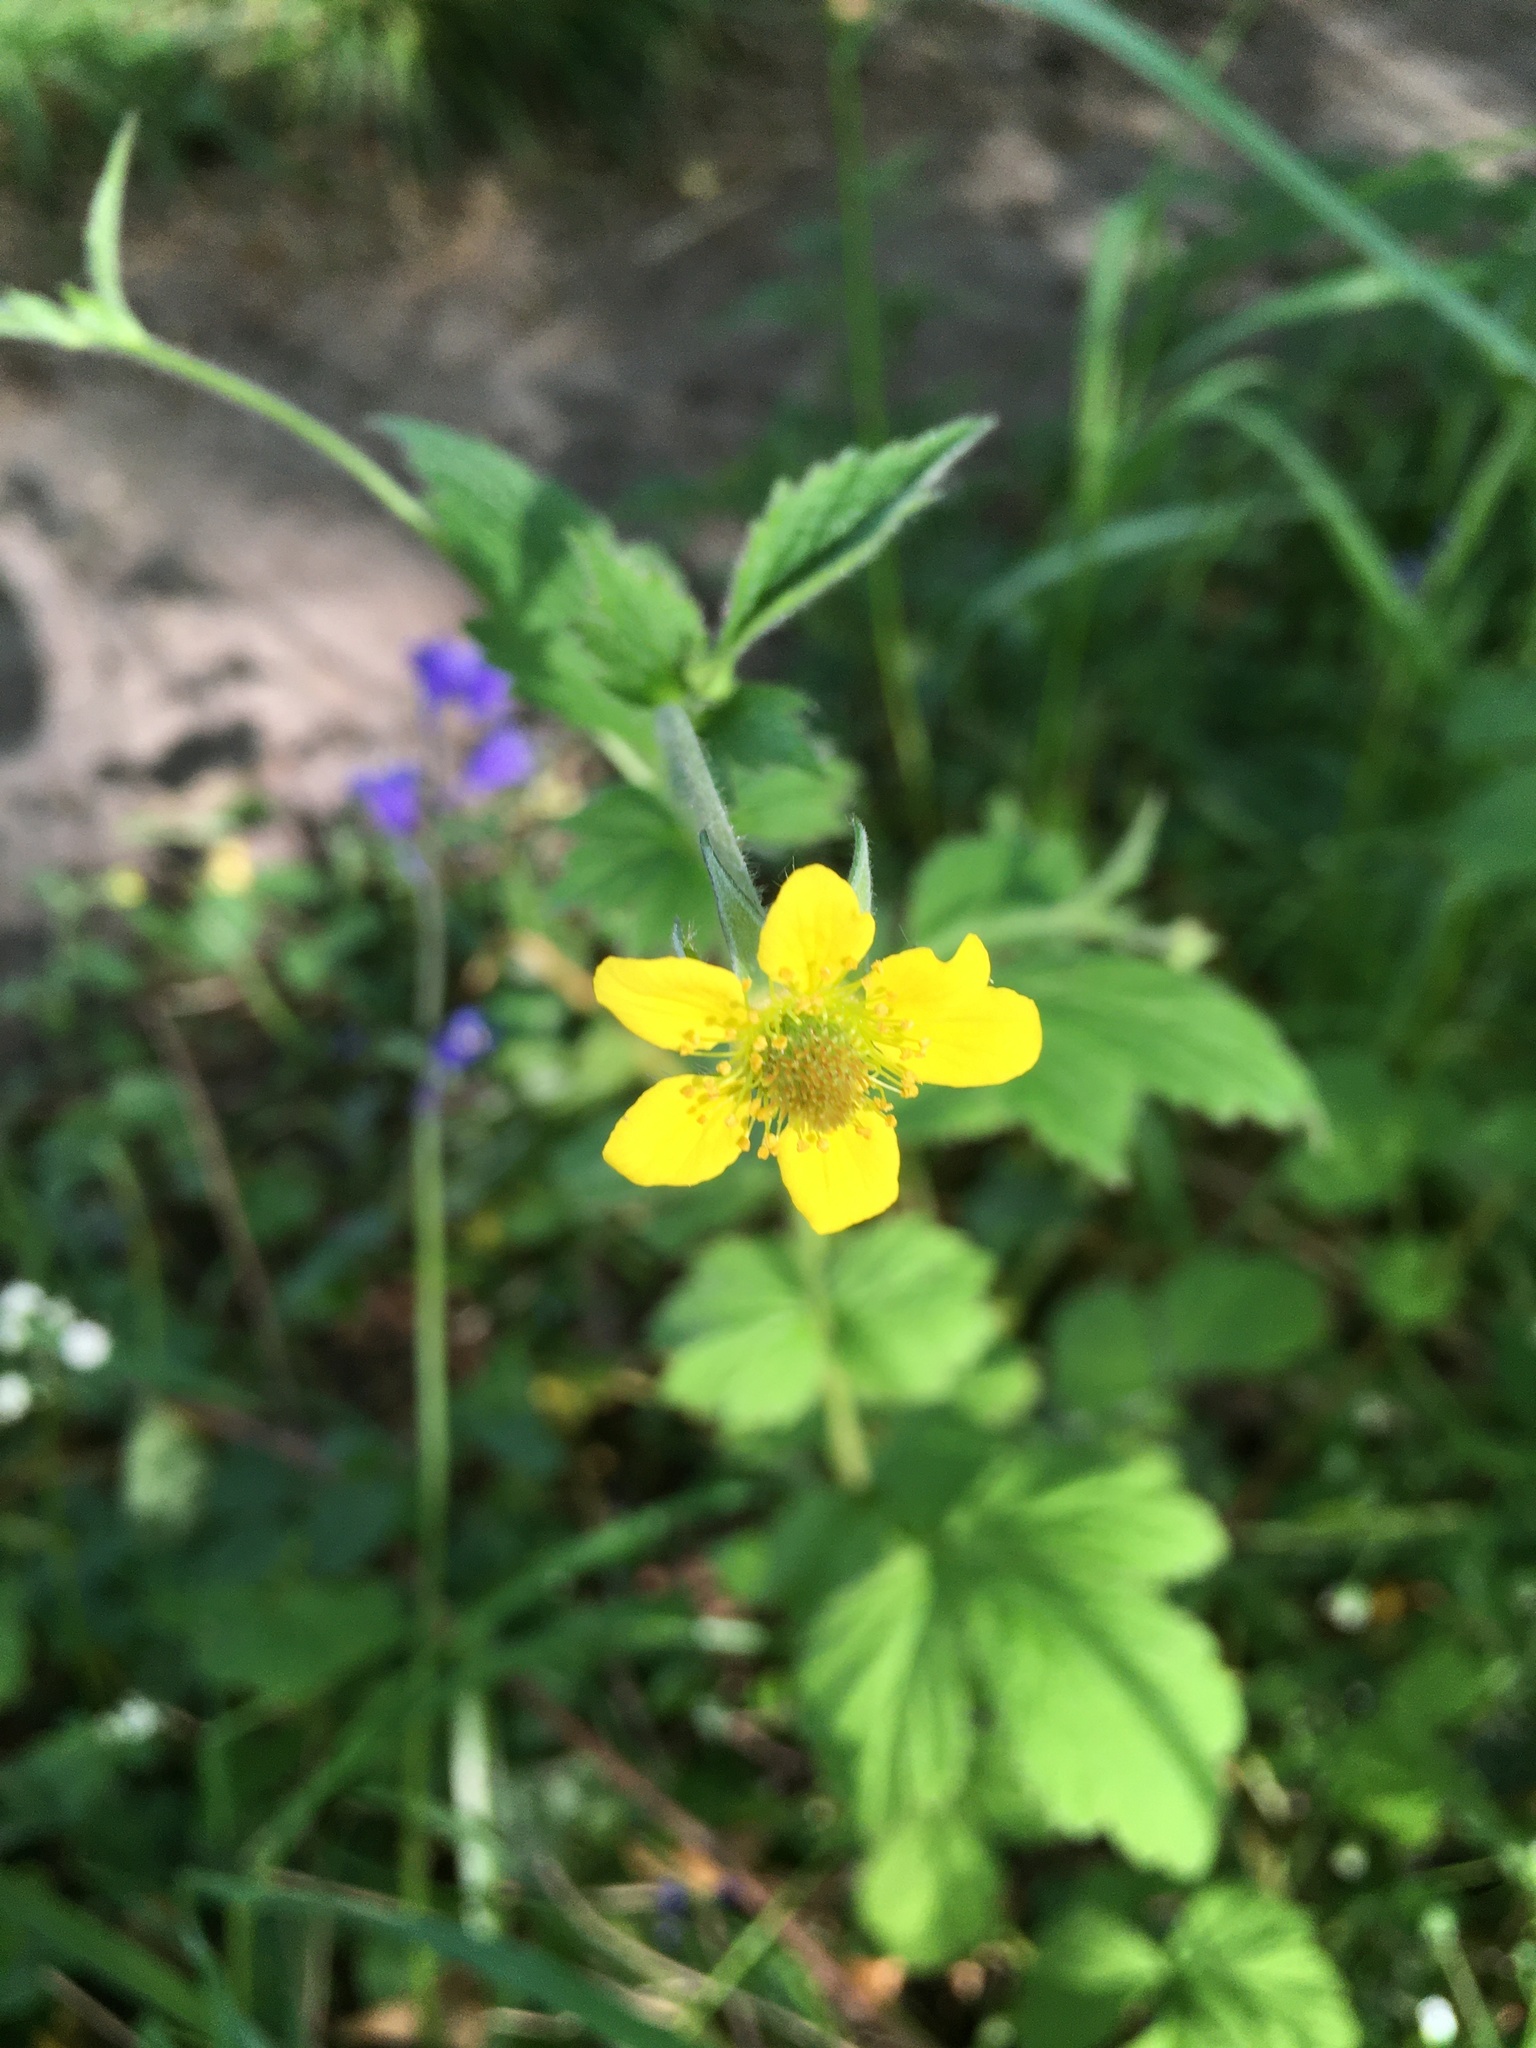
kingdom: Plantae
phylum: Tracheophyta
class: Magnoliopsida
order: Rosales
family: Rosaceae
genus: Geum
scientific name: Geum urbanum
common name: Wood avens
